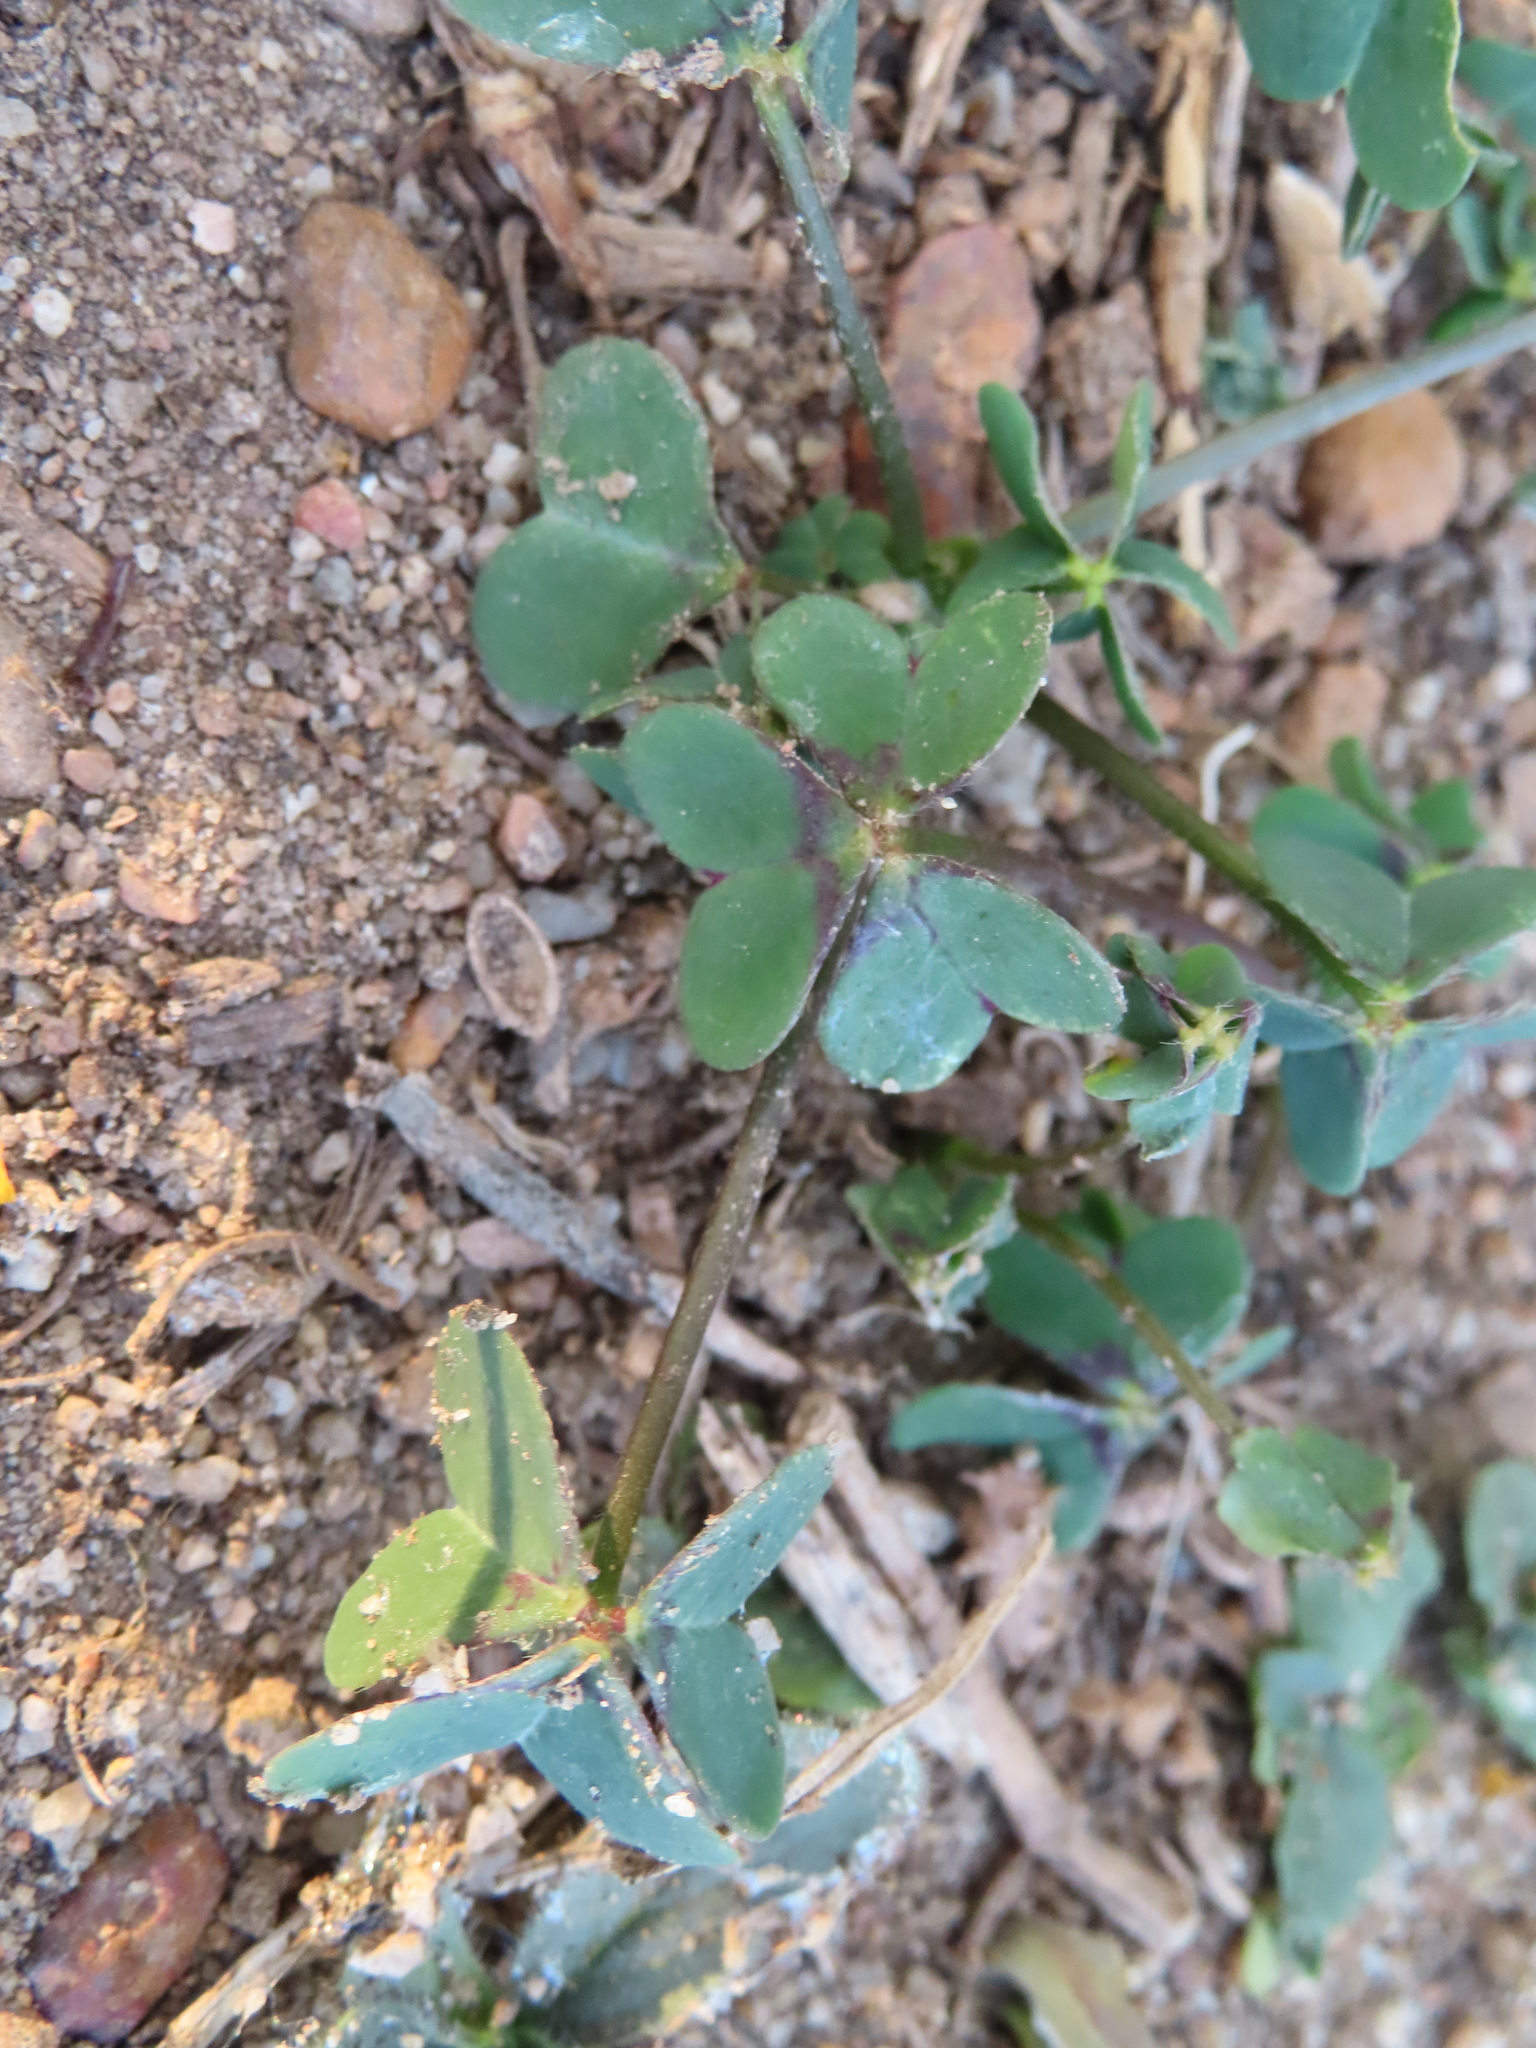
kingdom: Plantae
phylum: Tracheophyta
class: Magnoliopsida
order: Oxalidales
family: Oxalidaceae
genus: Oxalis
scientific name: Oxalis pes-caprae
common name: Bermuda-buttercup
